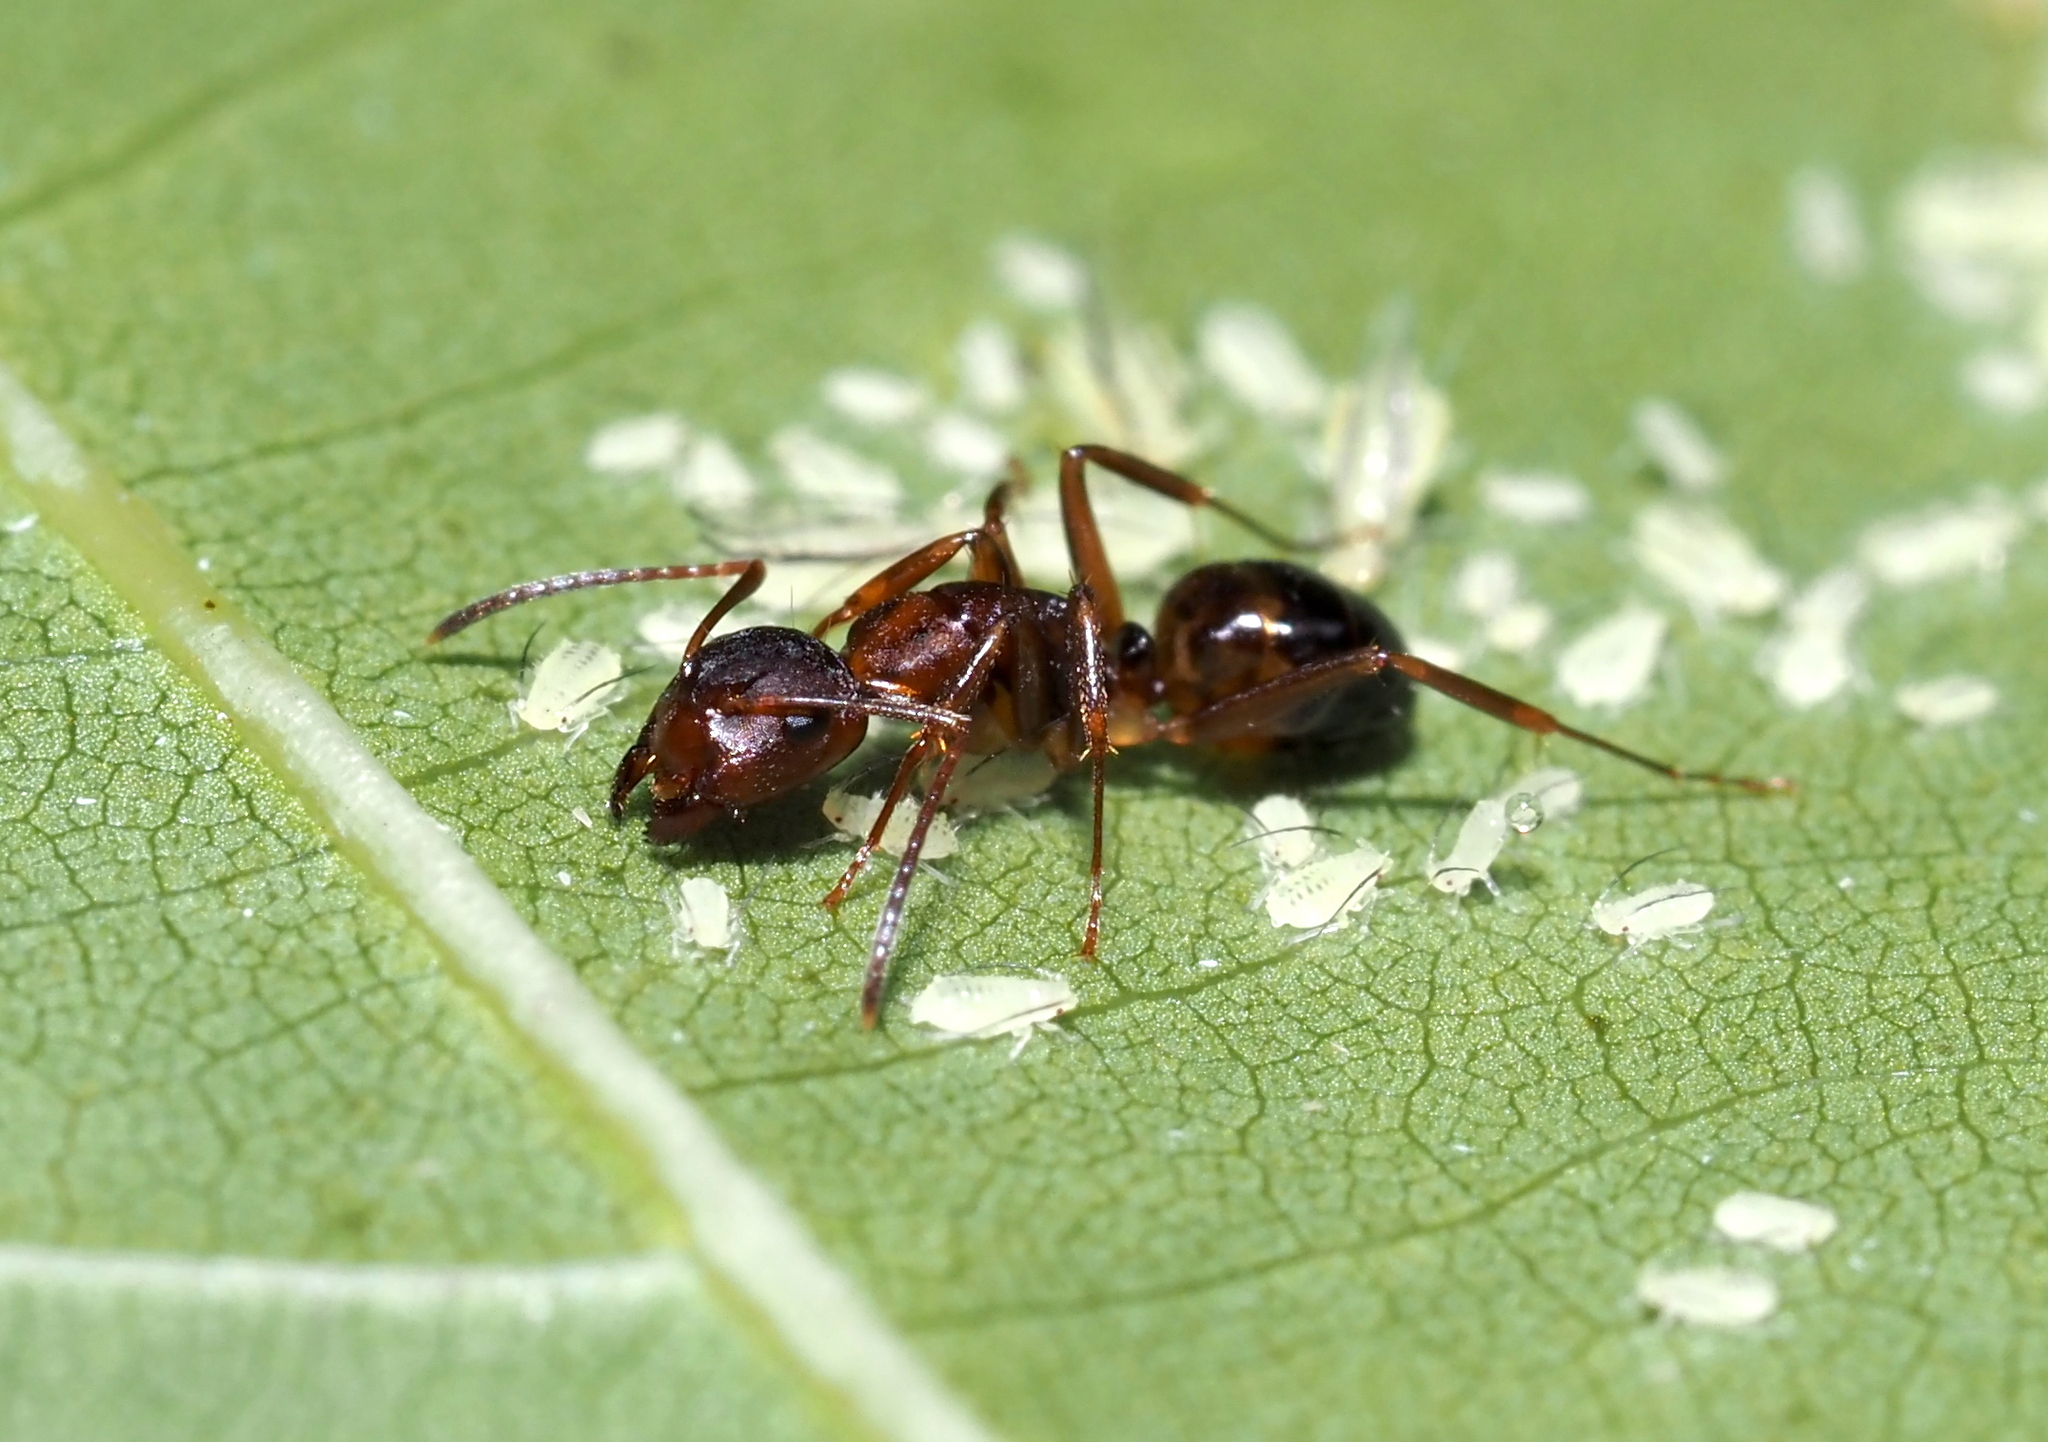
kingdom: Animalia
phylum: Arthropoda
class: Insecta
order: Hymenoptera
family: Formicidae
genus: Camponotus
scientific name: Camponotus subbarbatus
